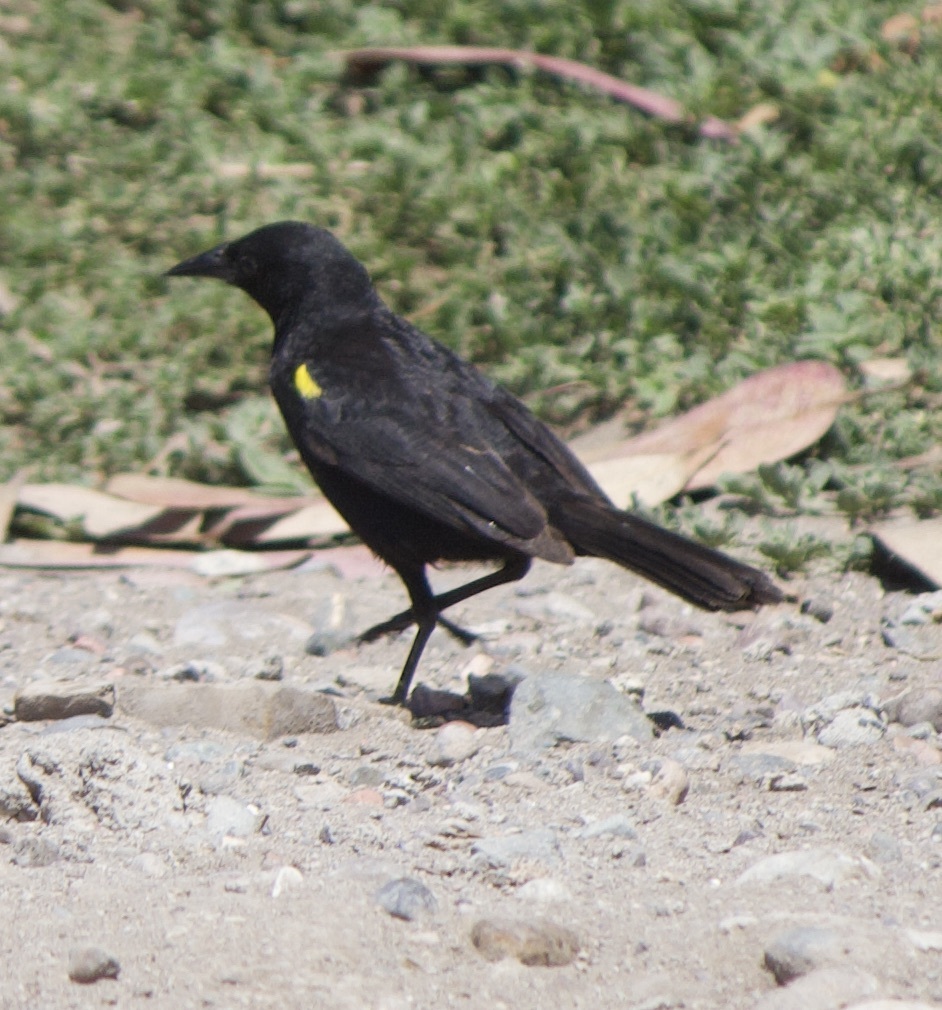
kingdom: Animalia
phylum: Chordata
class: Aves
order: Passeriformes
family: Icteridae
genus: Agelasticus
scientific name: Agelasticus thilius
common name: Yellow-winged blackbird
